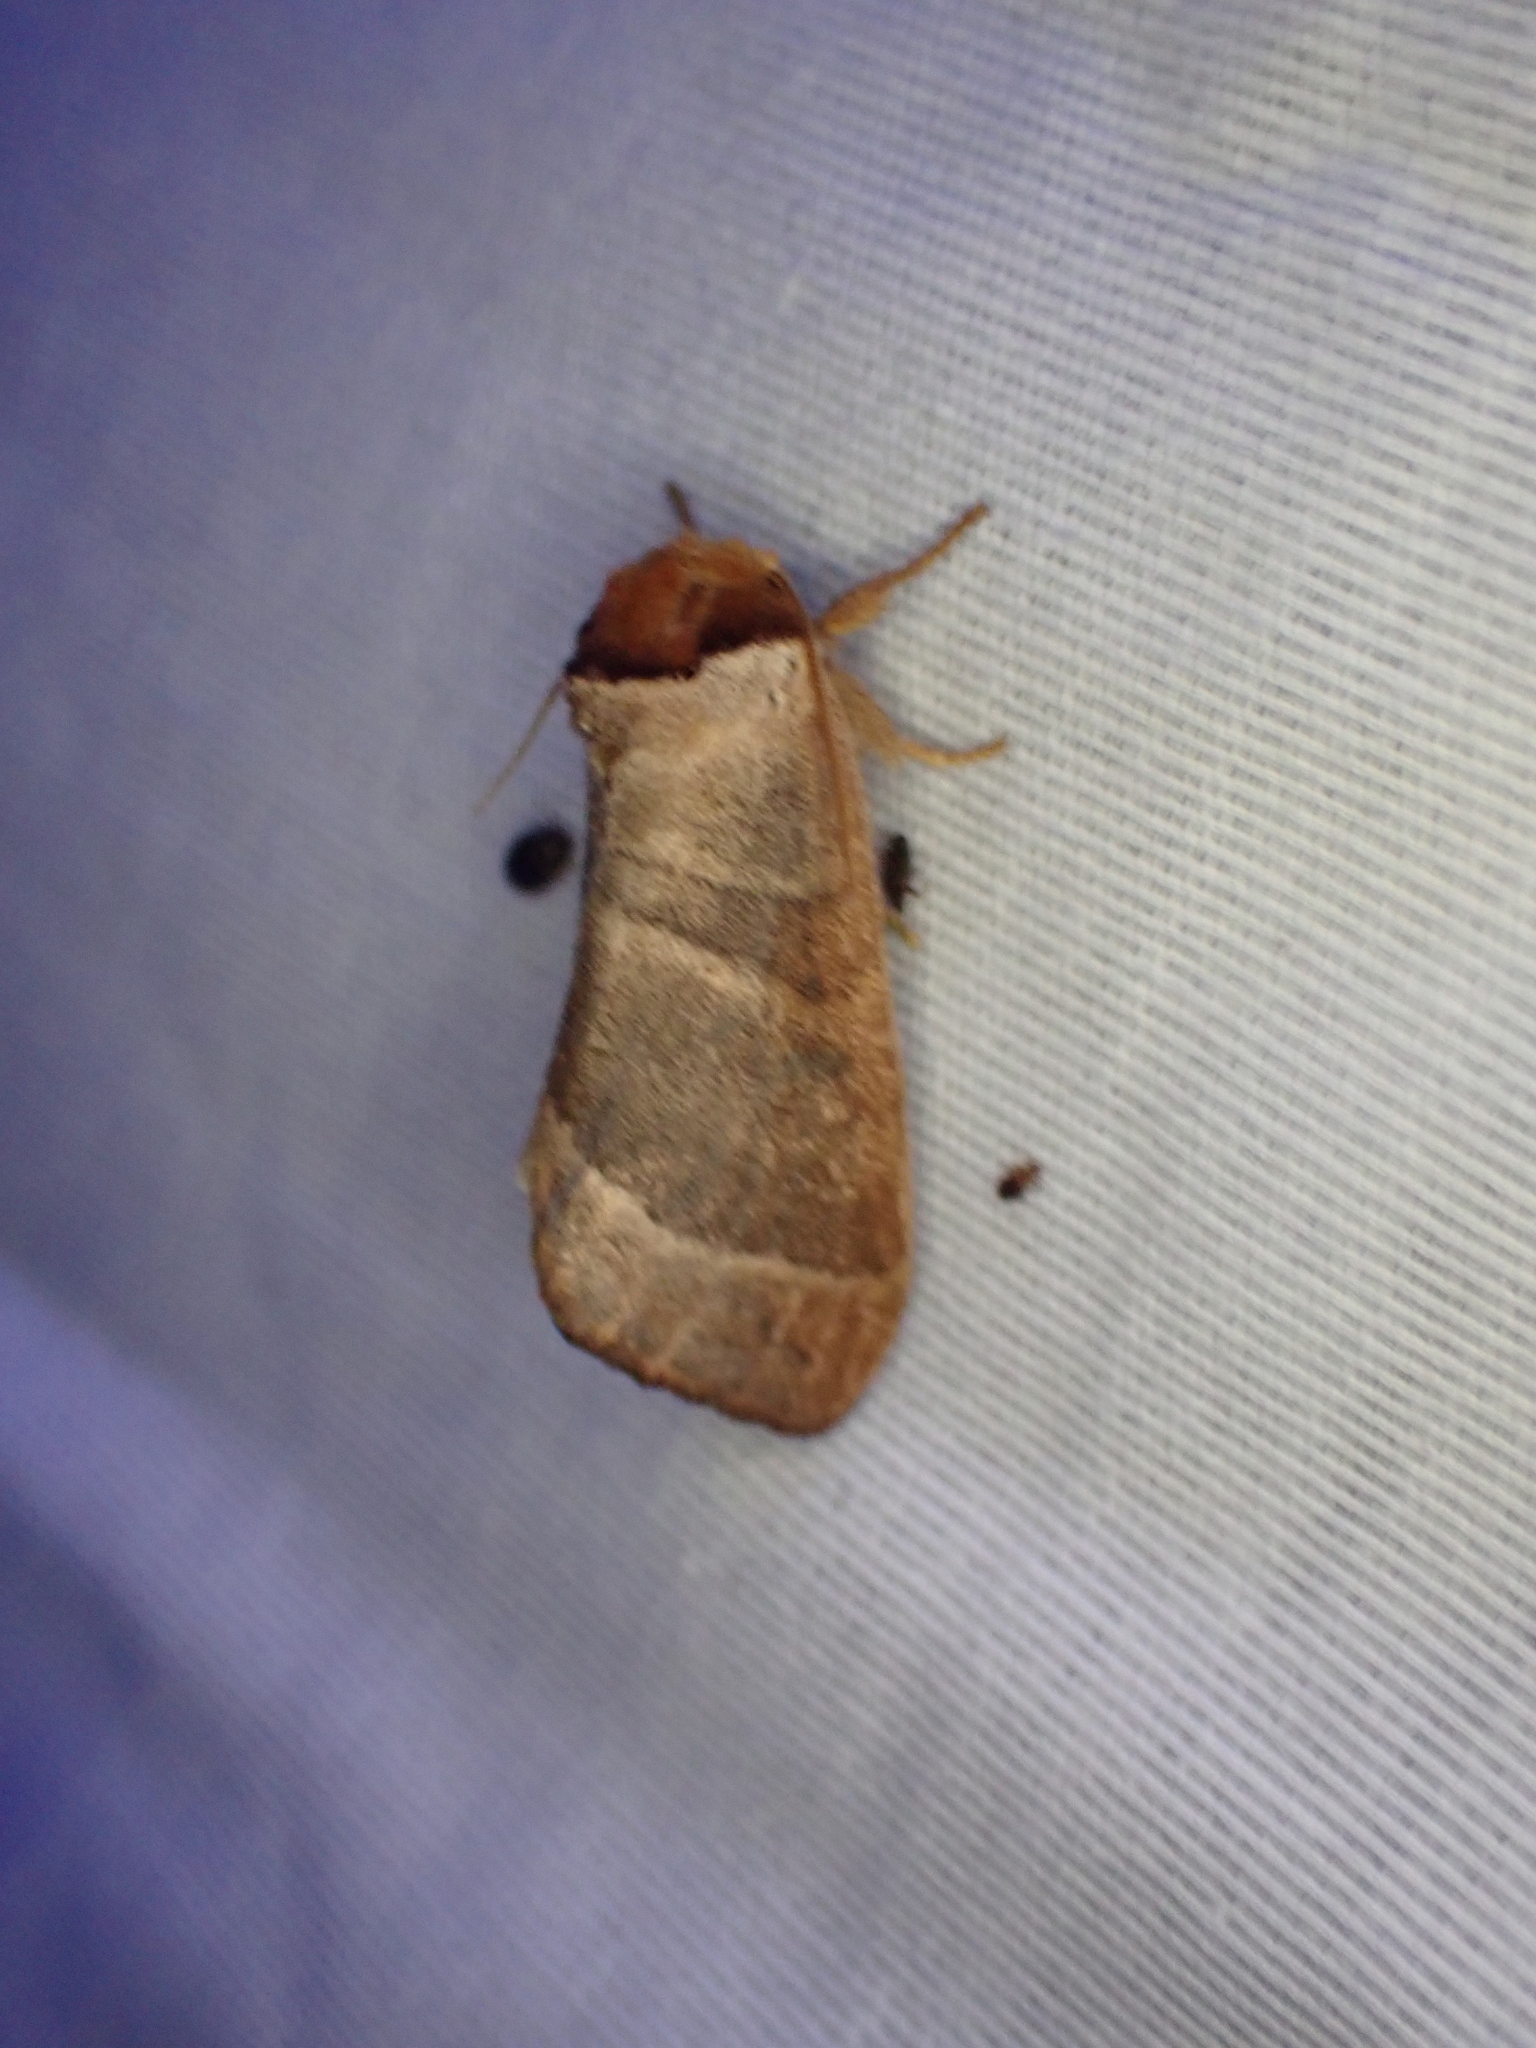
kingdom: Animalia
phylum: Arthropoda
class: Insecta
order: Lepidoptera
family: Notodontidae
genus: Datana
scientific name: Datana integerrima
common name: Walnut caterpillar
